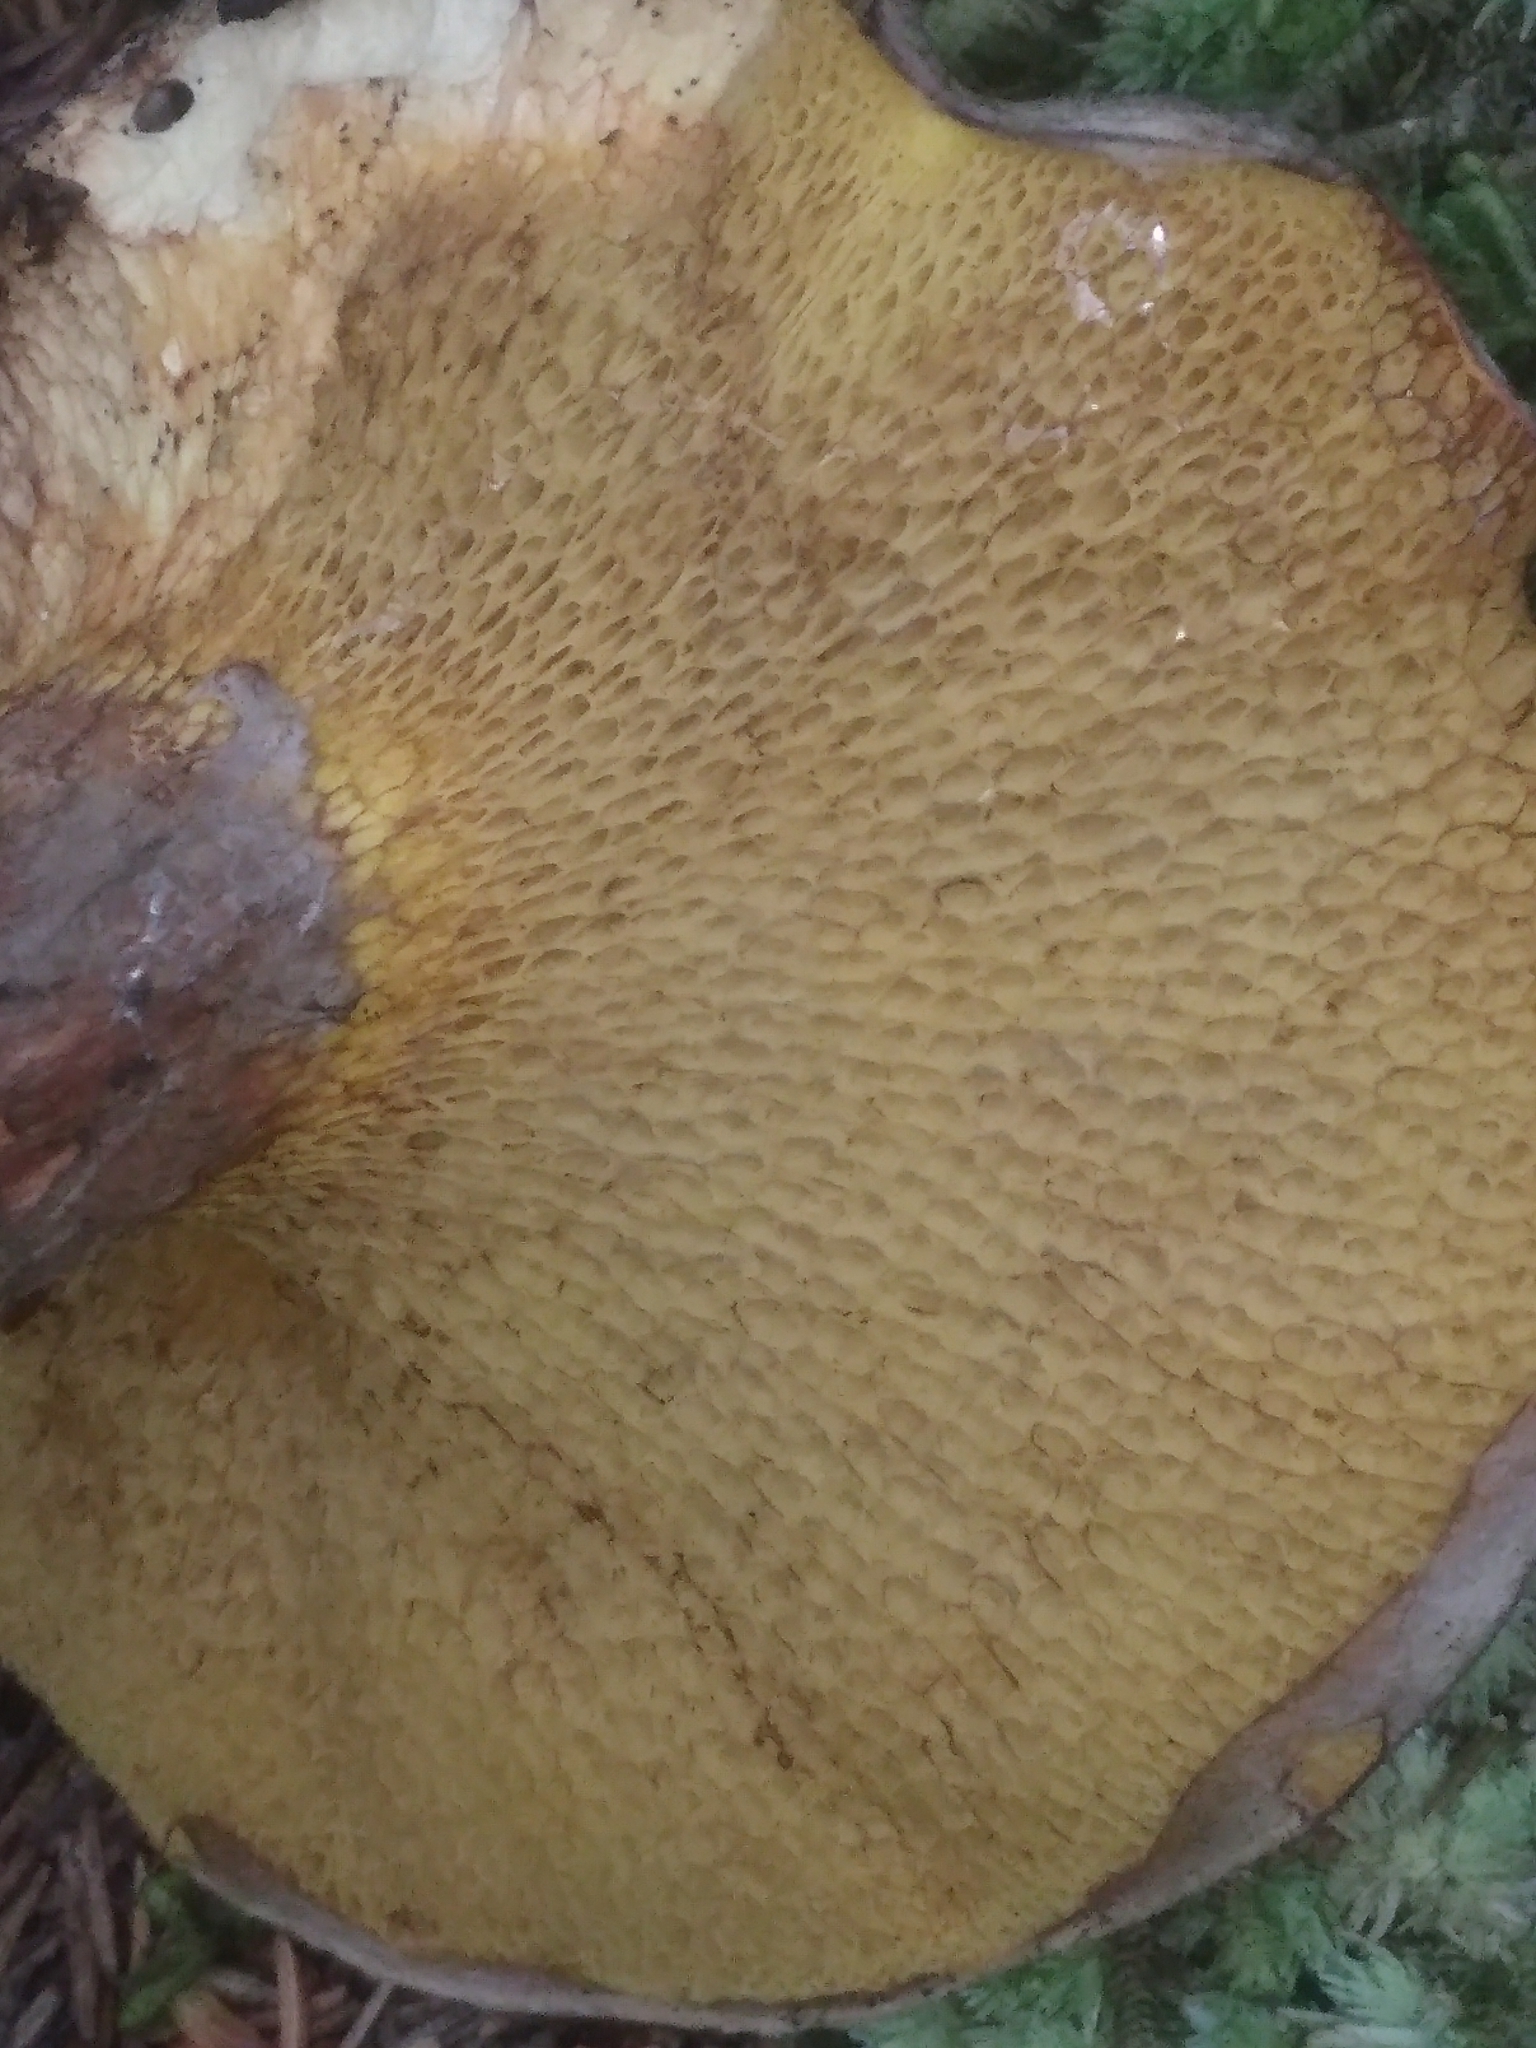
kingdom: Fungi
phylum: Basidiomycota
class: Agaricomycetes
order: Boletales
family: Suillaceae
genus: Suillus
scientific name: Suillus spraguei
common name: Painted suillus
